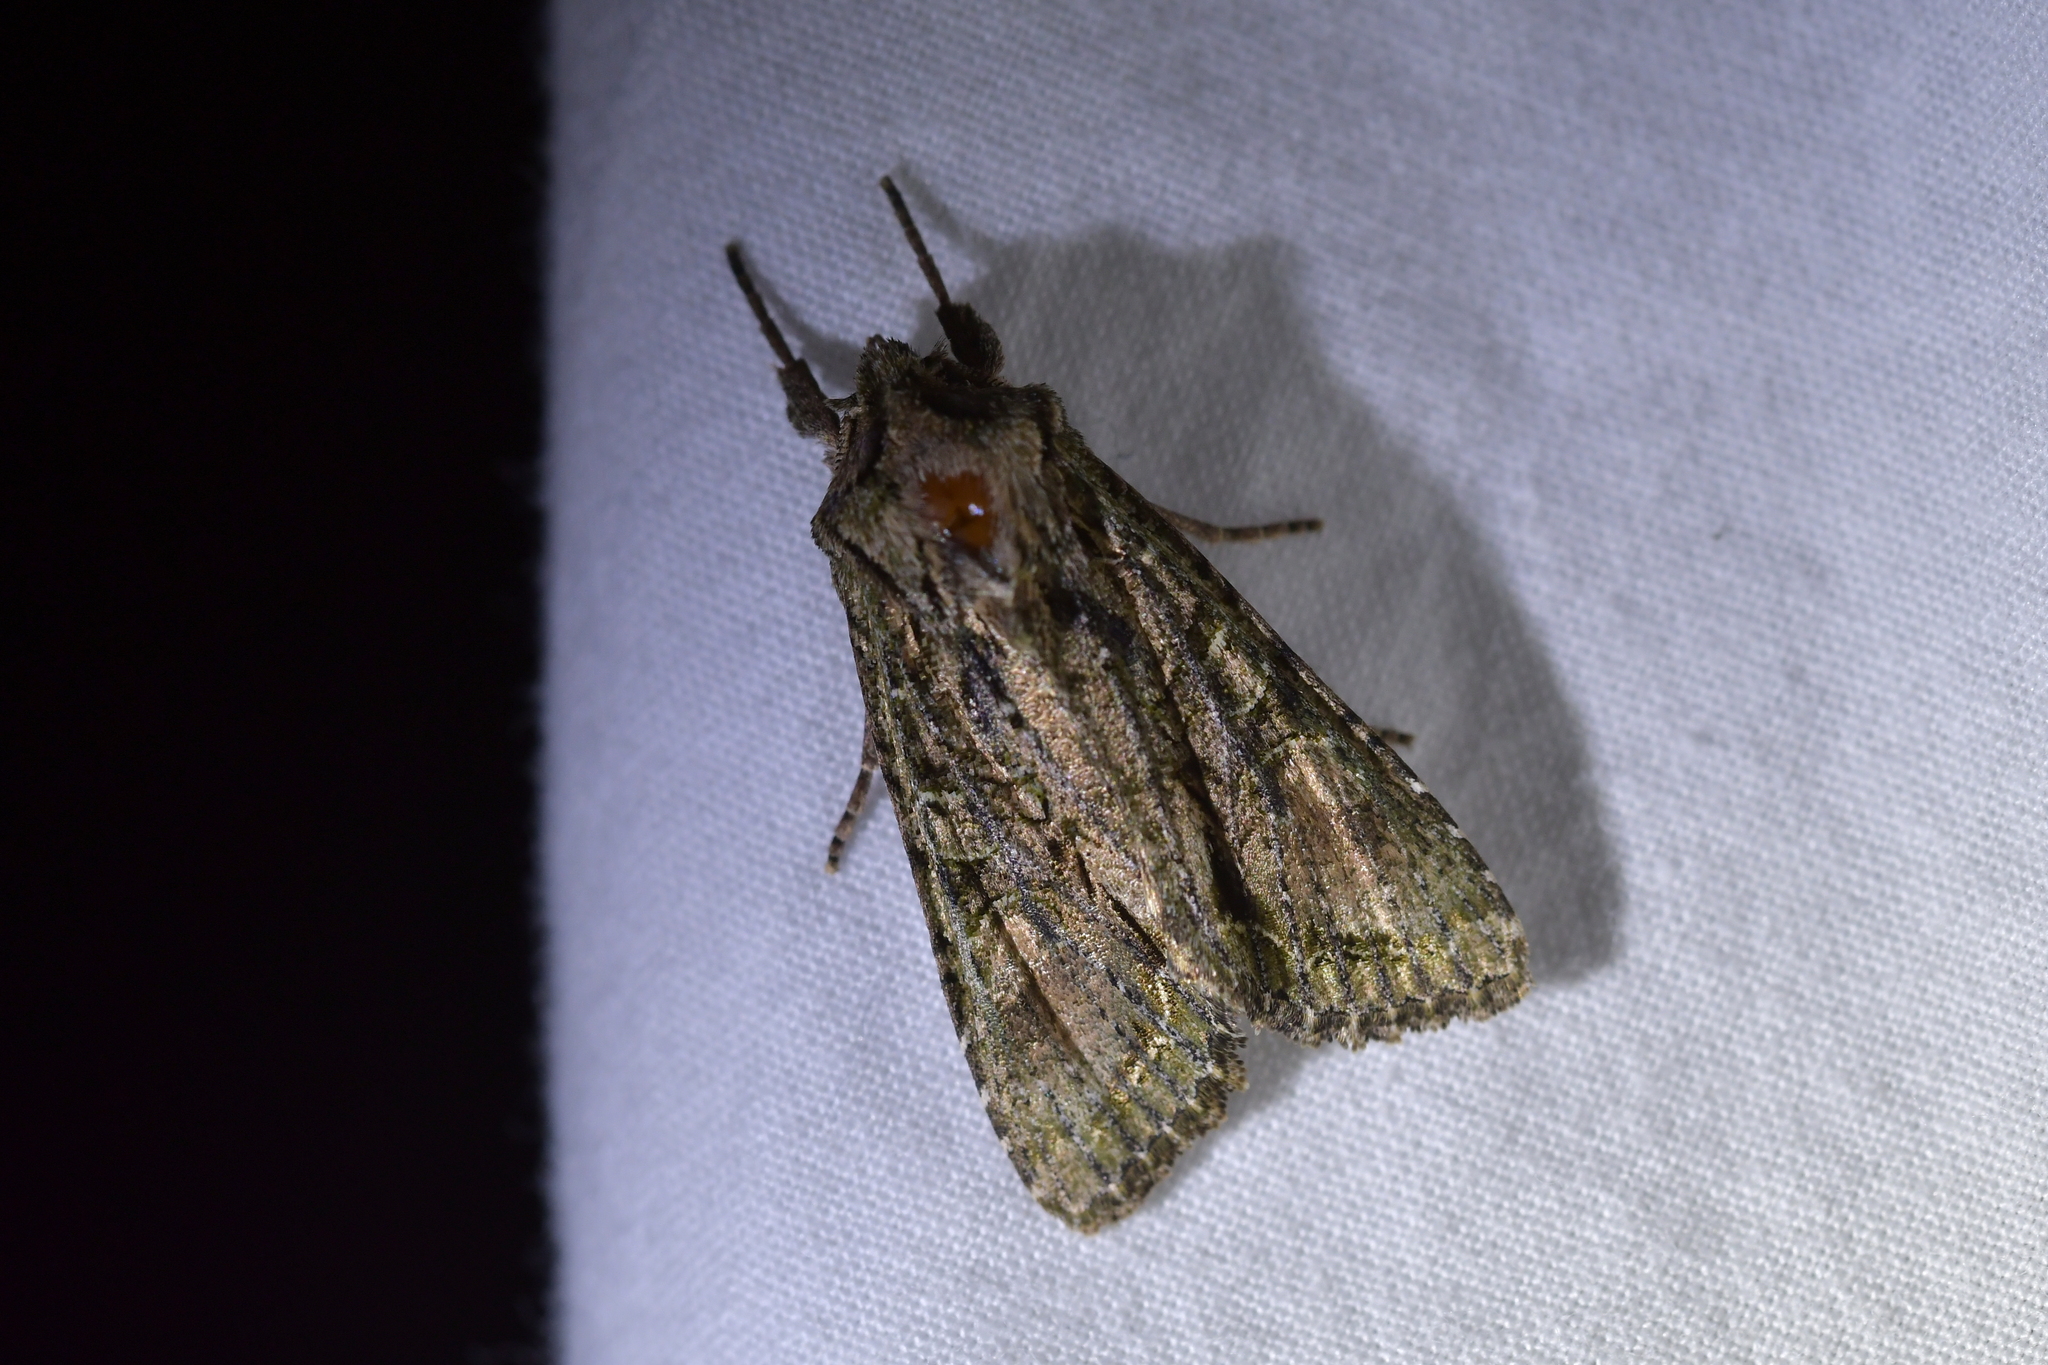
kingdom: Animalia
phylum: Arthropoda
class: Insecta
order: Lepidoptera
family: Noctuidae
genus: Ichneutica
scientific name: Ichneutica mutans
